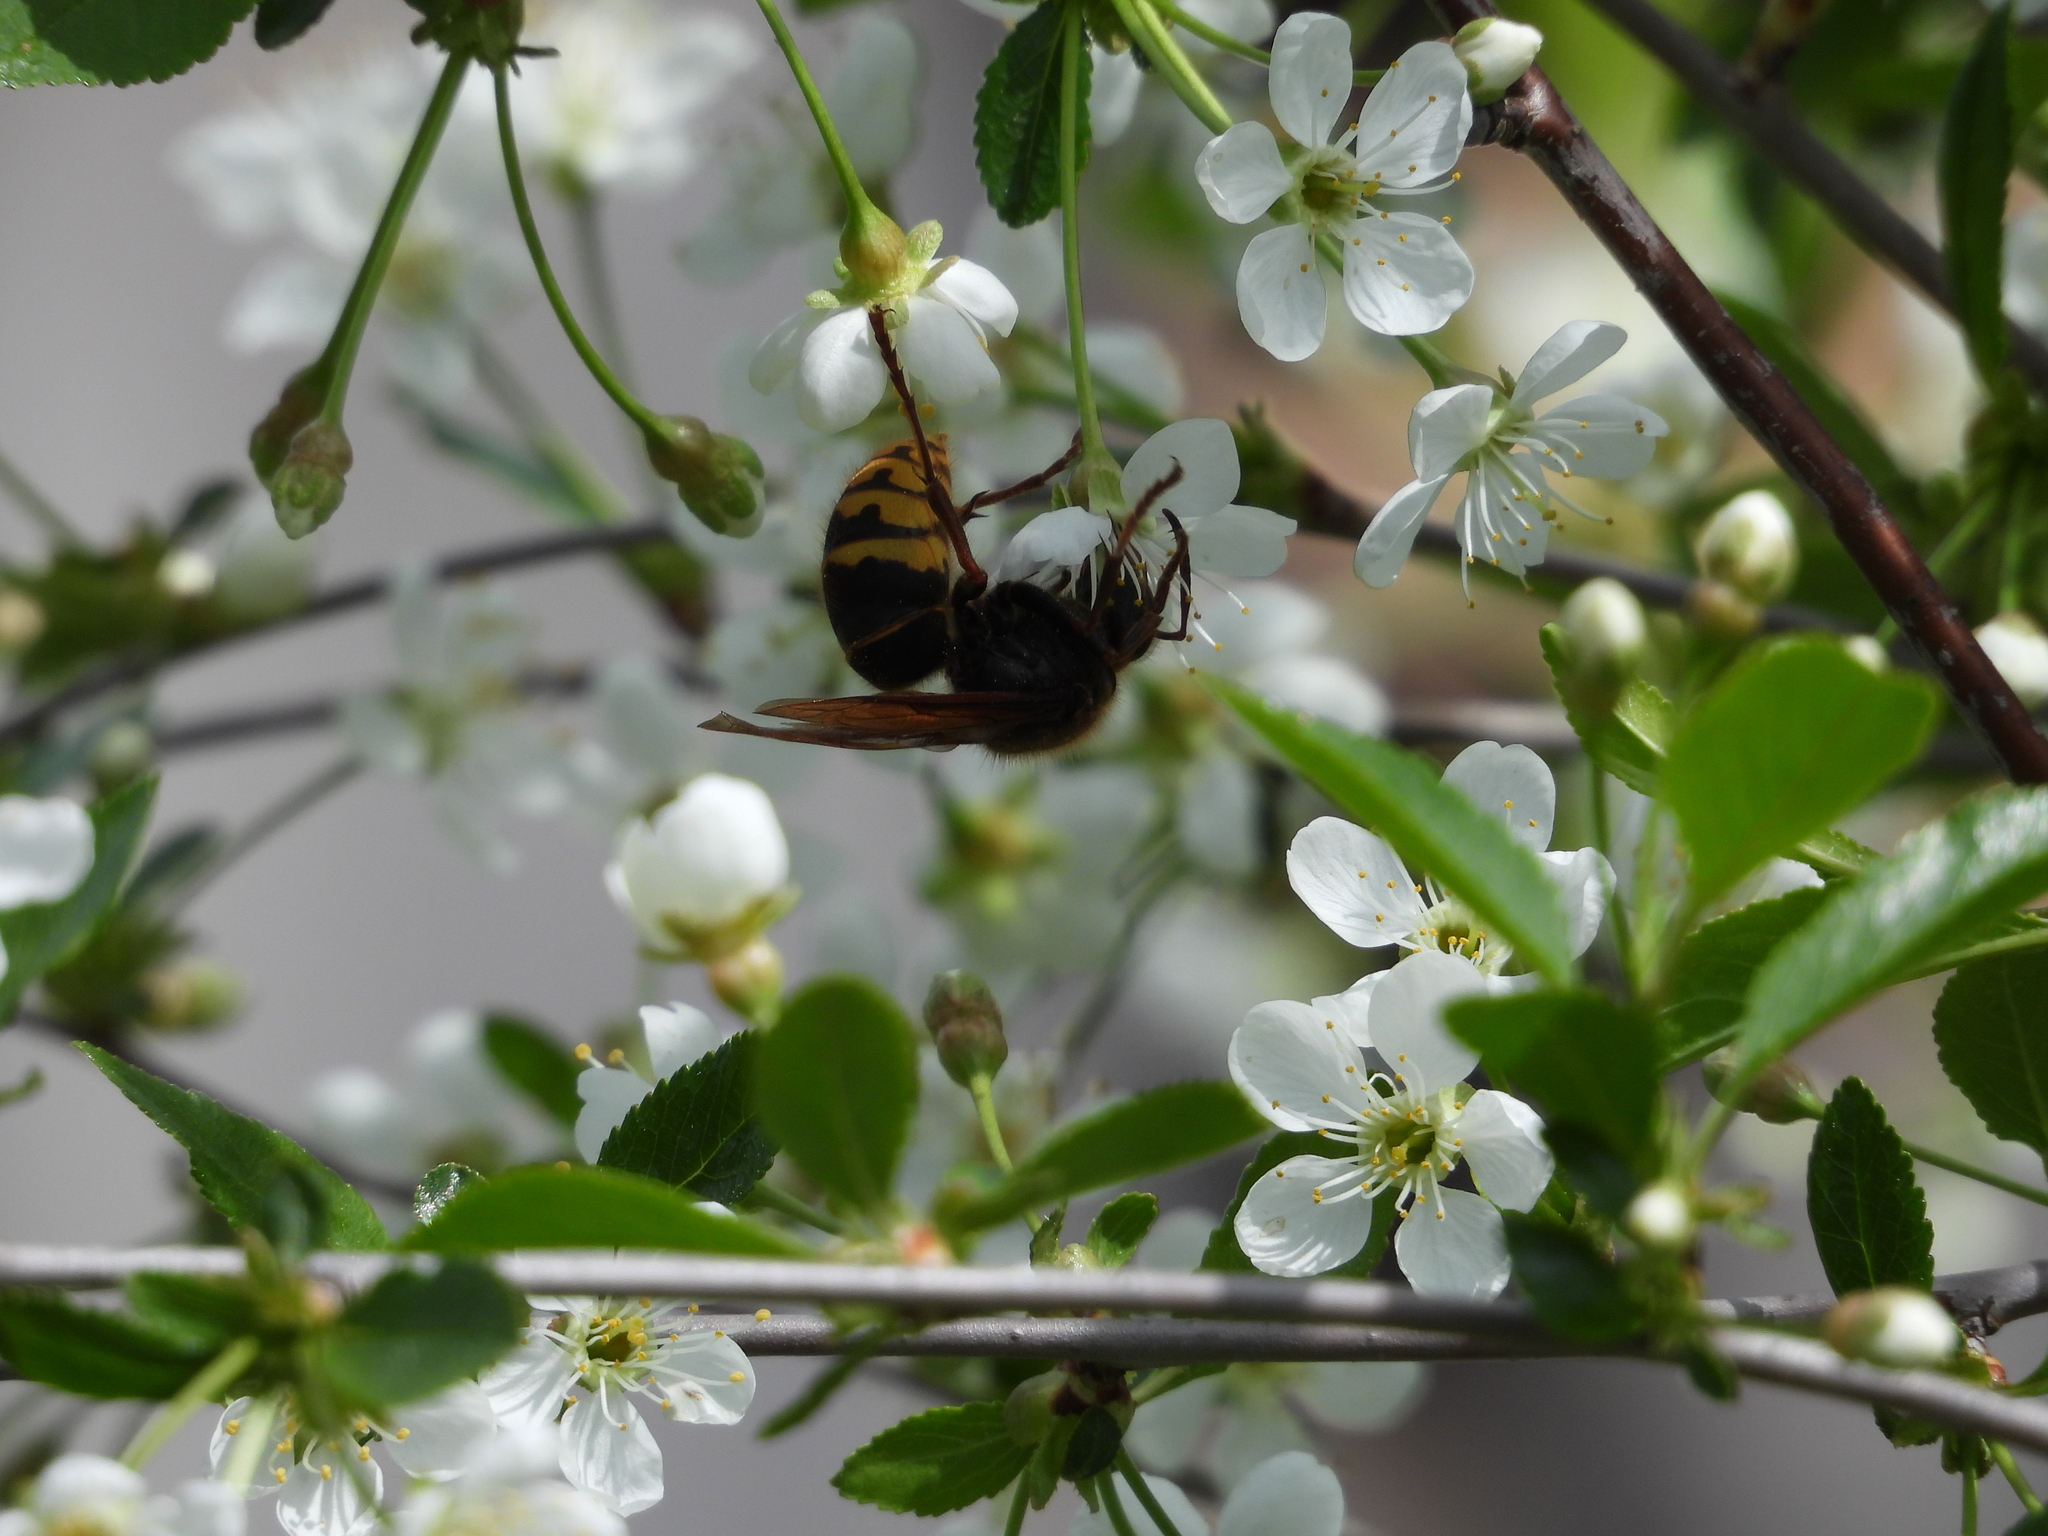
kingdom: Animalia
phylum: Arthropoda
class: Insecta
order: Hymenoptera
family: Vespidae
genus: Vespa
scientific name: Vespa crabro
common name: Hornet
